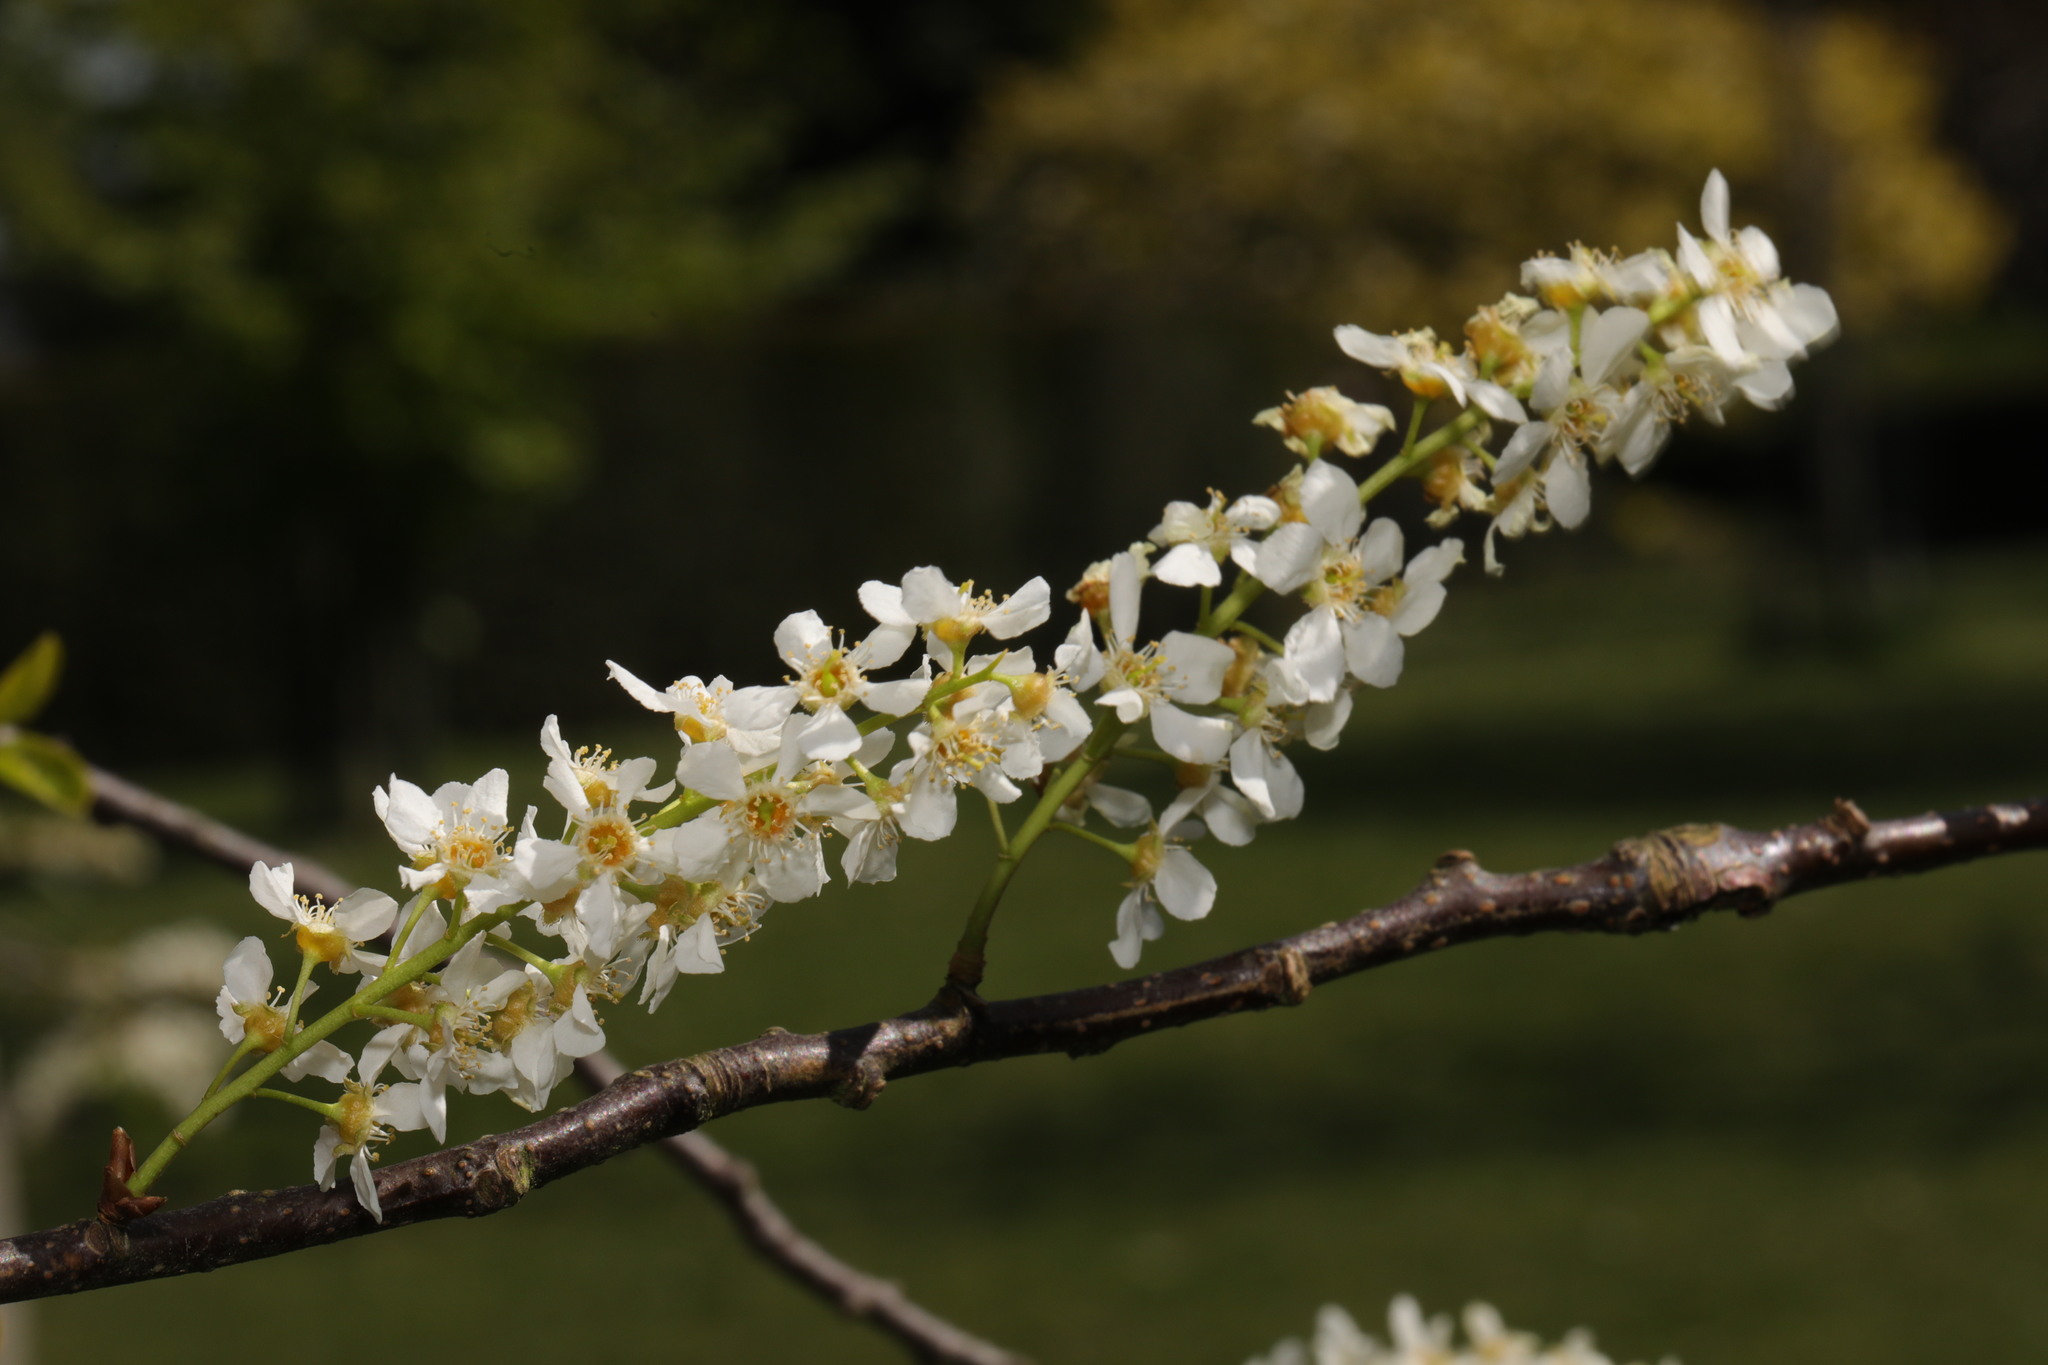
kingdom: Plantae
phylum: Tracheophyta
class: Magnoliopsida
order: Rosales
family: Rosaceae
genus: Prunus
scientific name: Prunus padus
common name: Bird cherry
